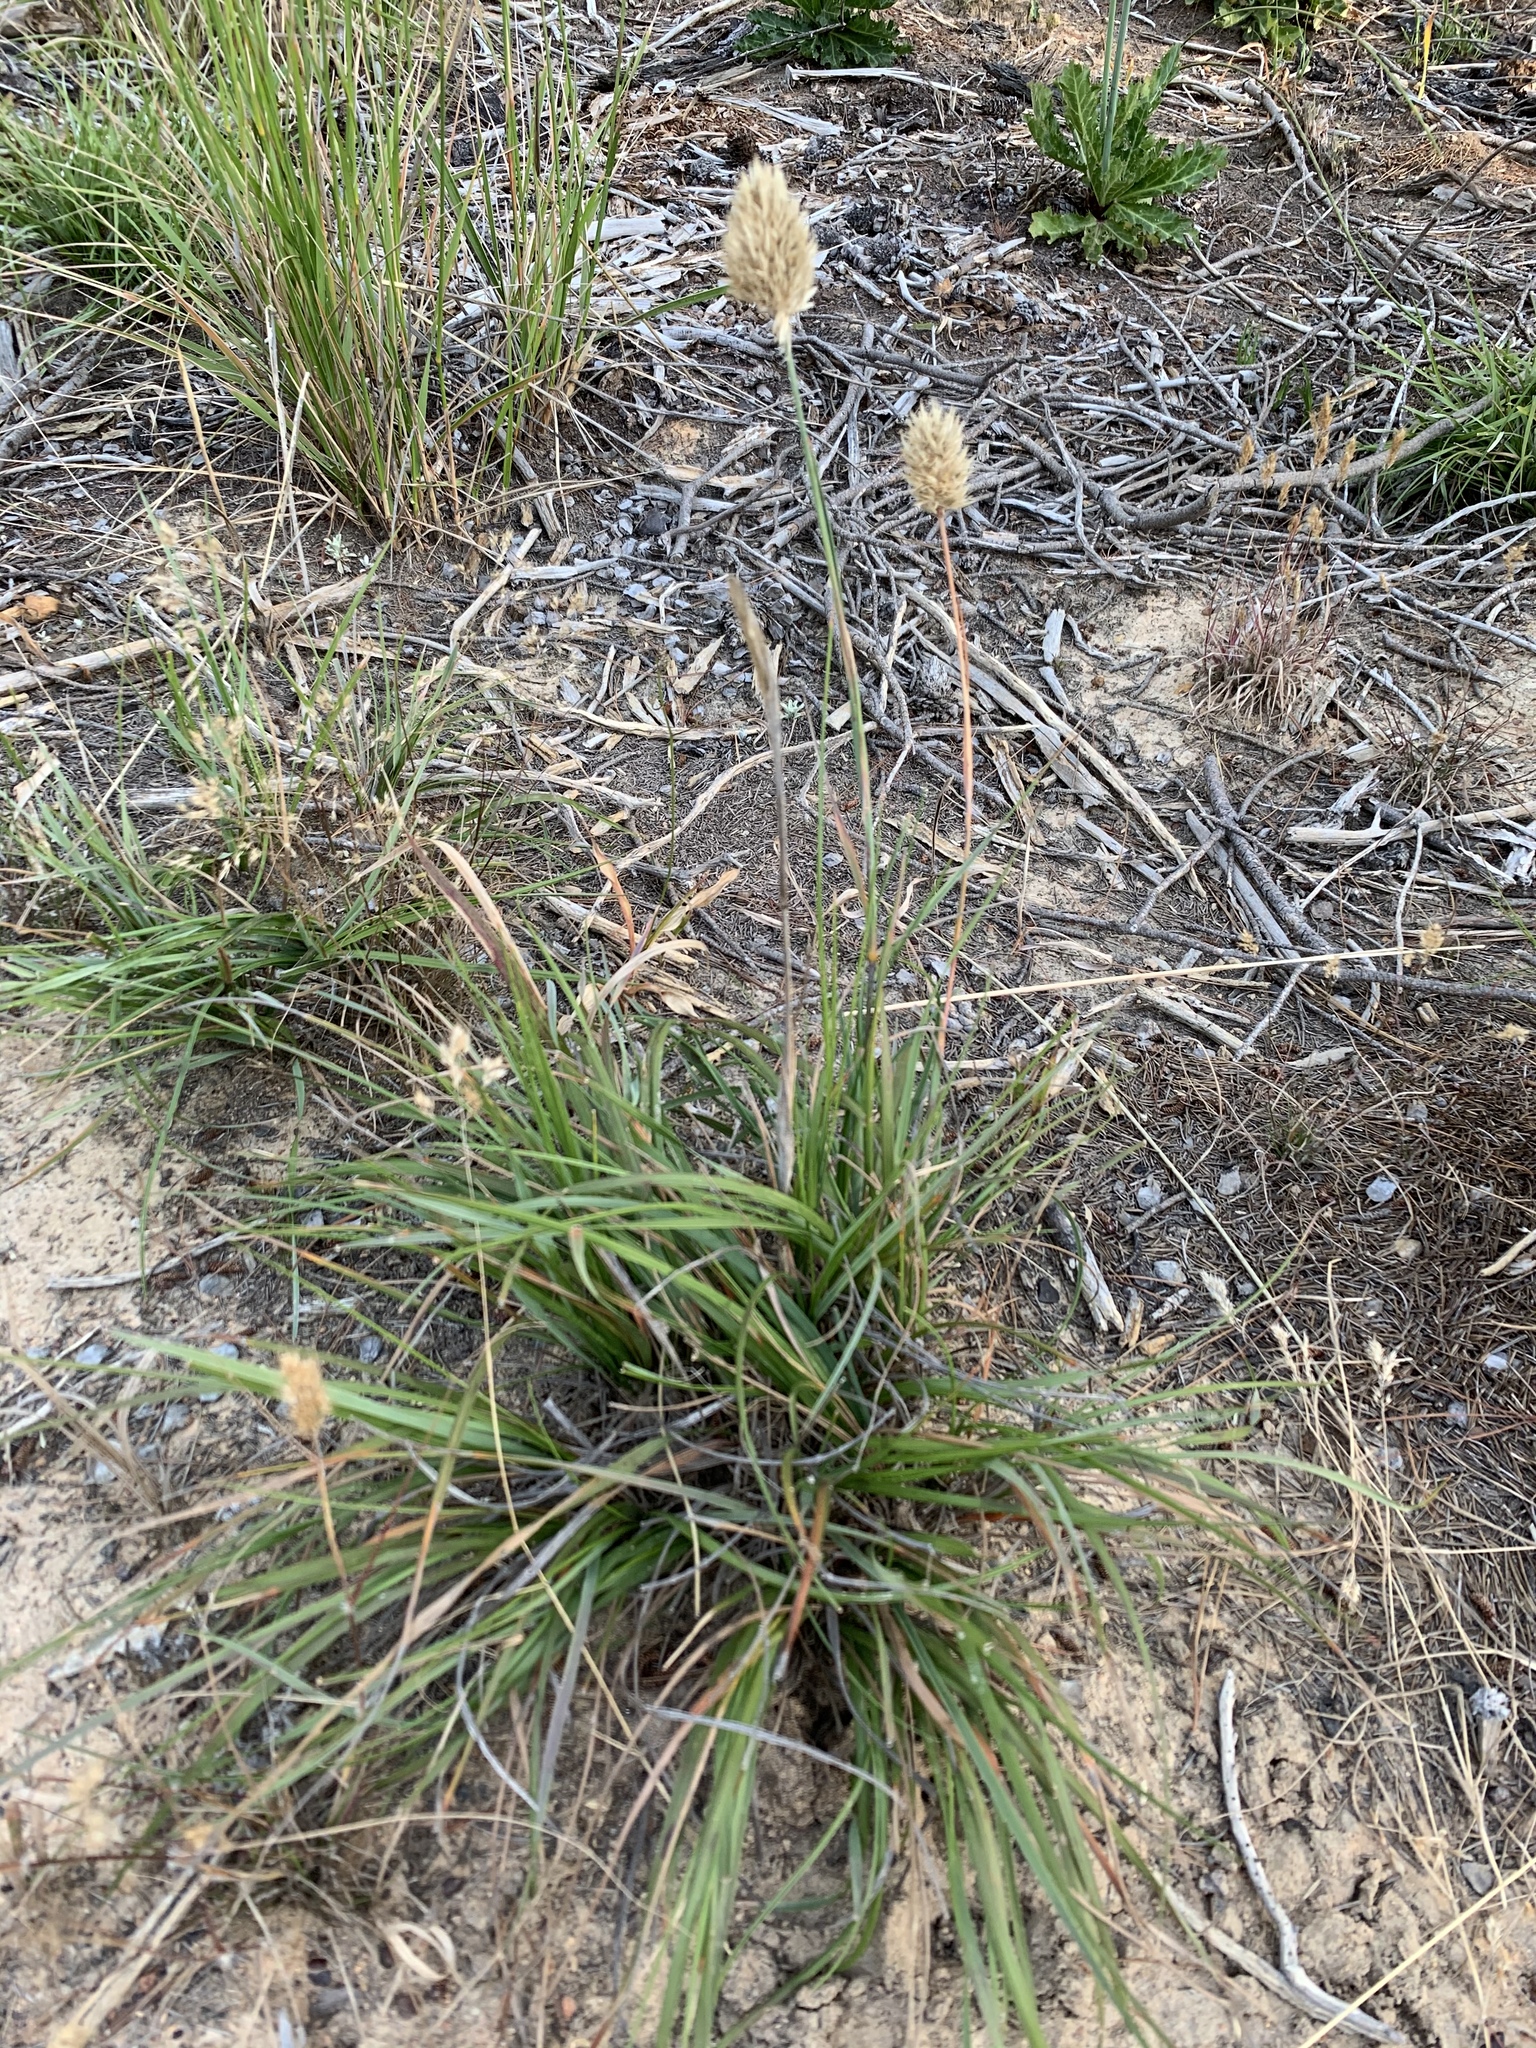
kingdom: Plantae
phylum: Tracheophyta
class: Liliopsida
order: Poales
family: Poaceae
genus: Geochloa
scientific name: Geochloa rufa
